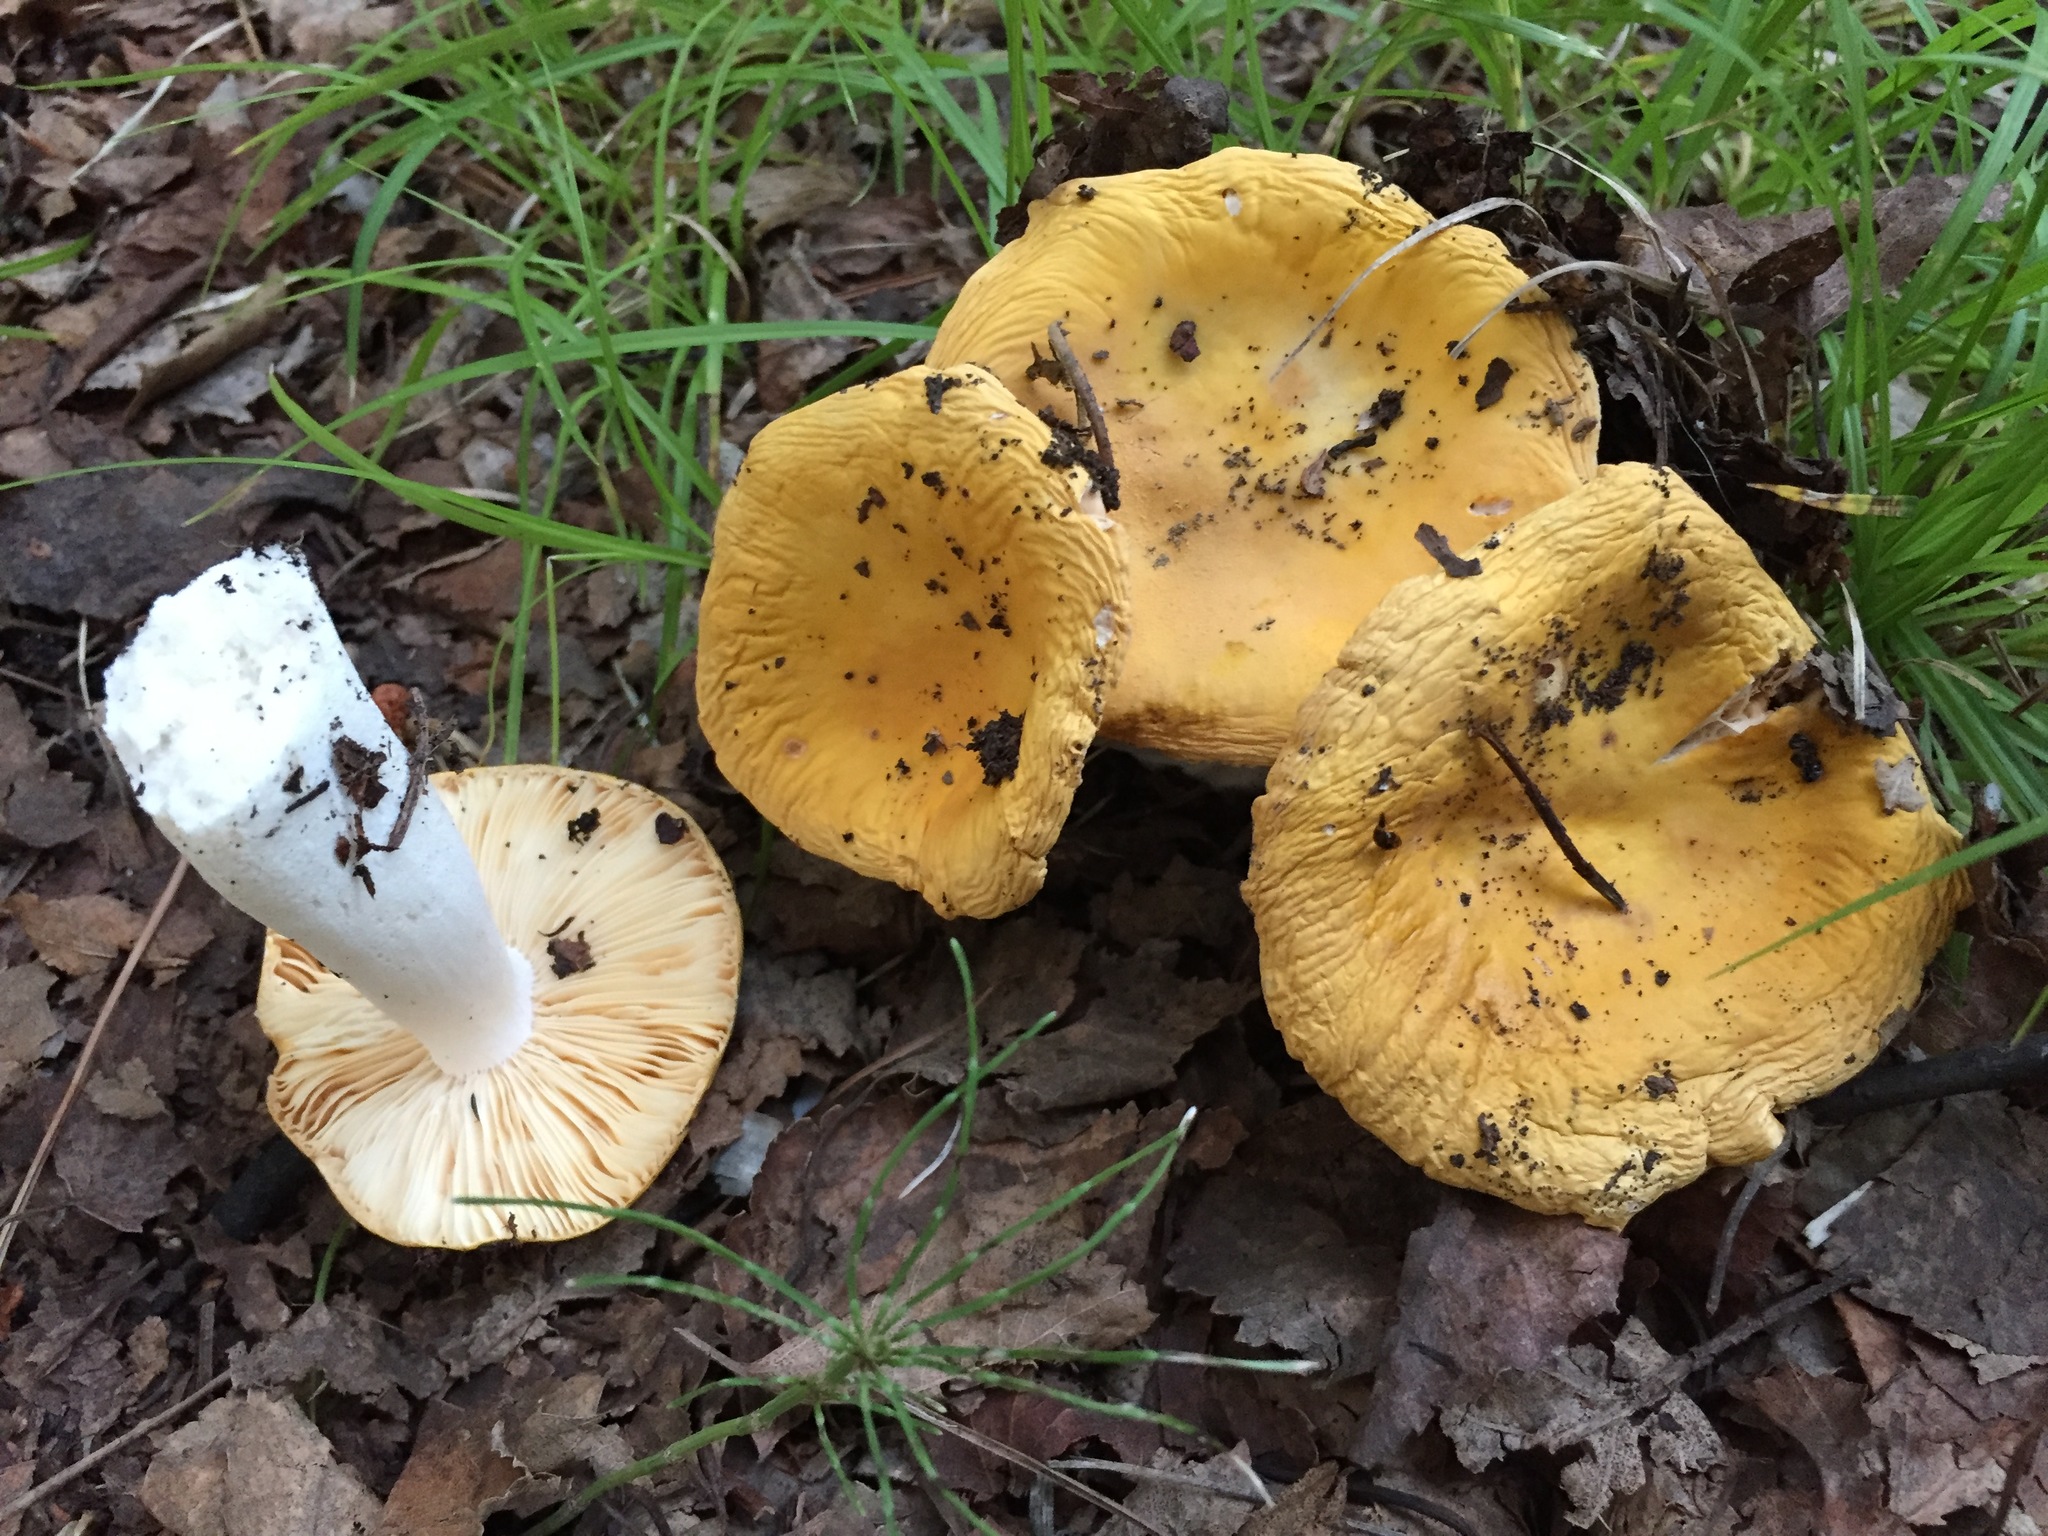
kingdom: Fungi
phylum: Basidiomycota
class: Agaricomycetes
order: Russulales
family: Russulaceae
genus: Russula
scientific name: Russula claroflava
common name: The yellow swamp brittlegill
